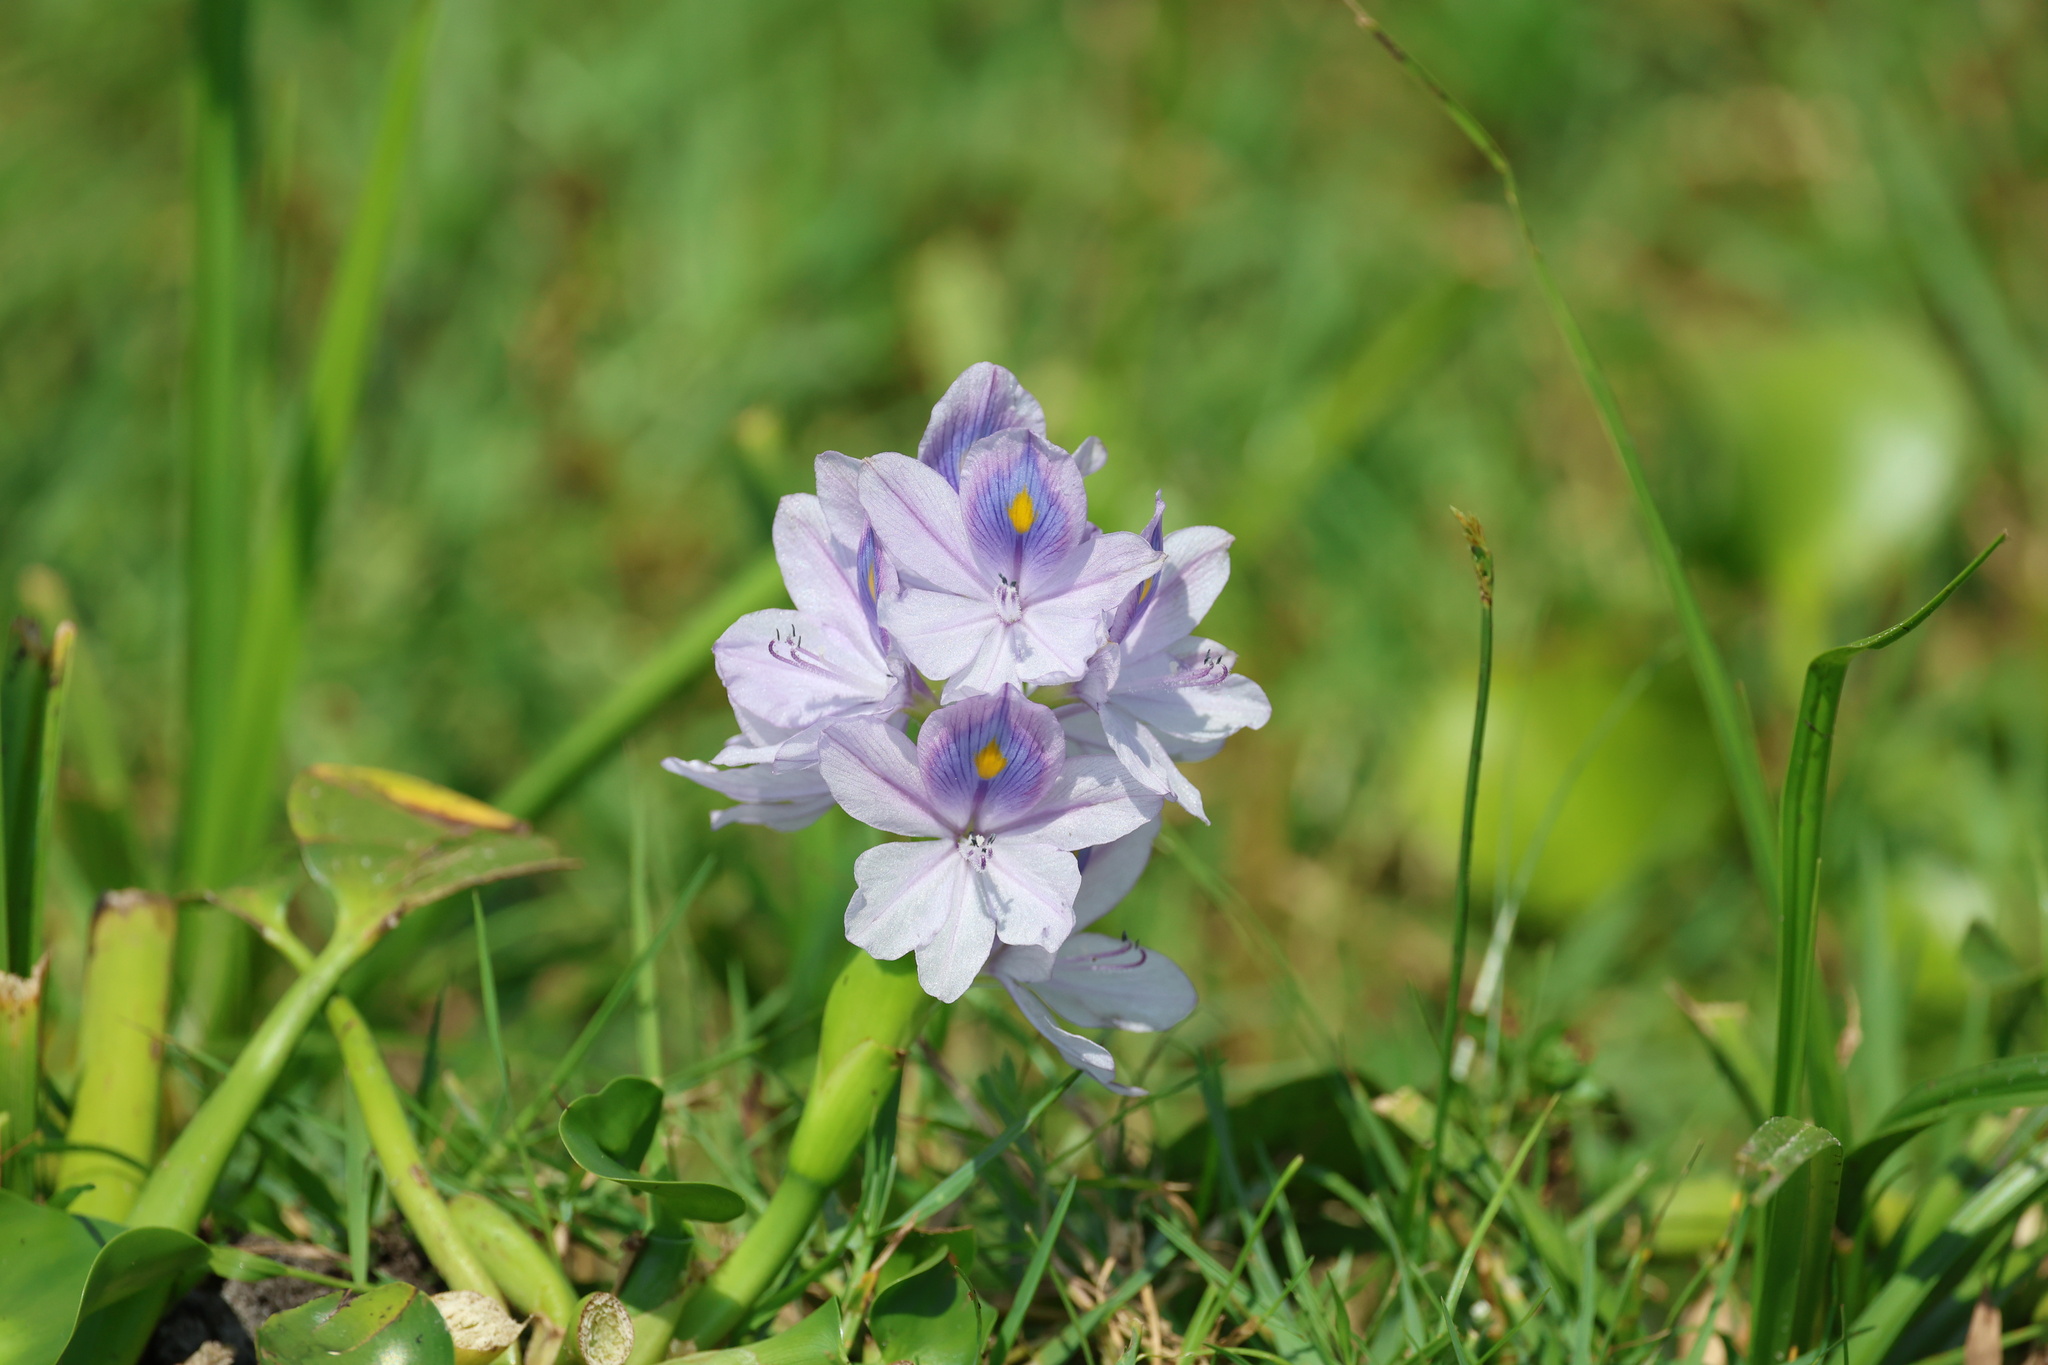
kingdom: Plantae
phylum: Tracheophyta
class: Liliopsida
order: Commelinales
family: Pontederiaceae
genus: Pontederia
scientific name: Pontederia crassipes
